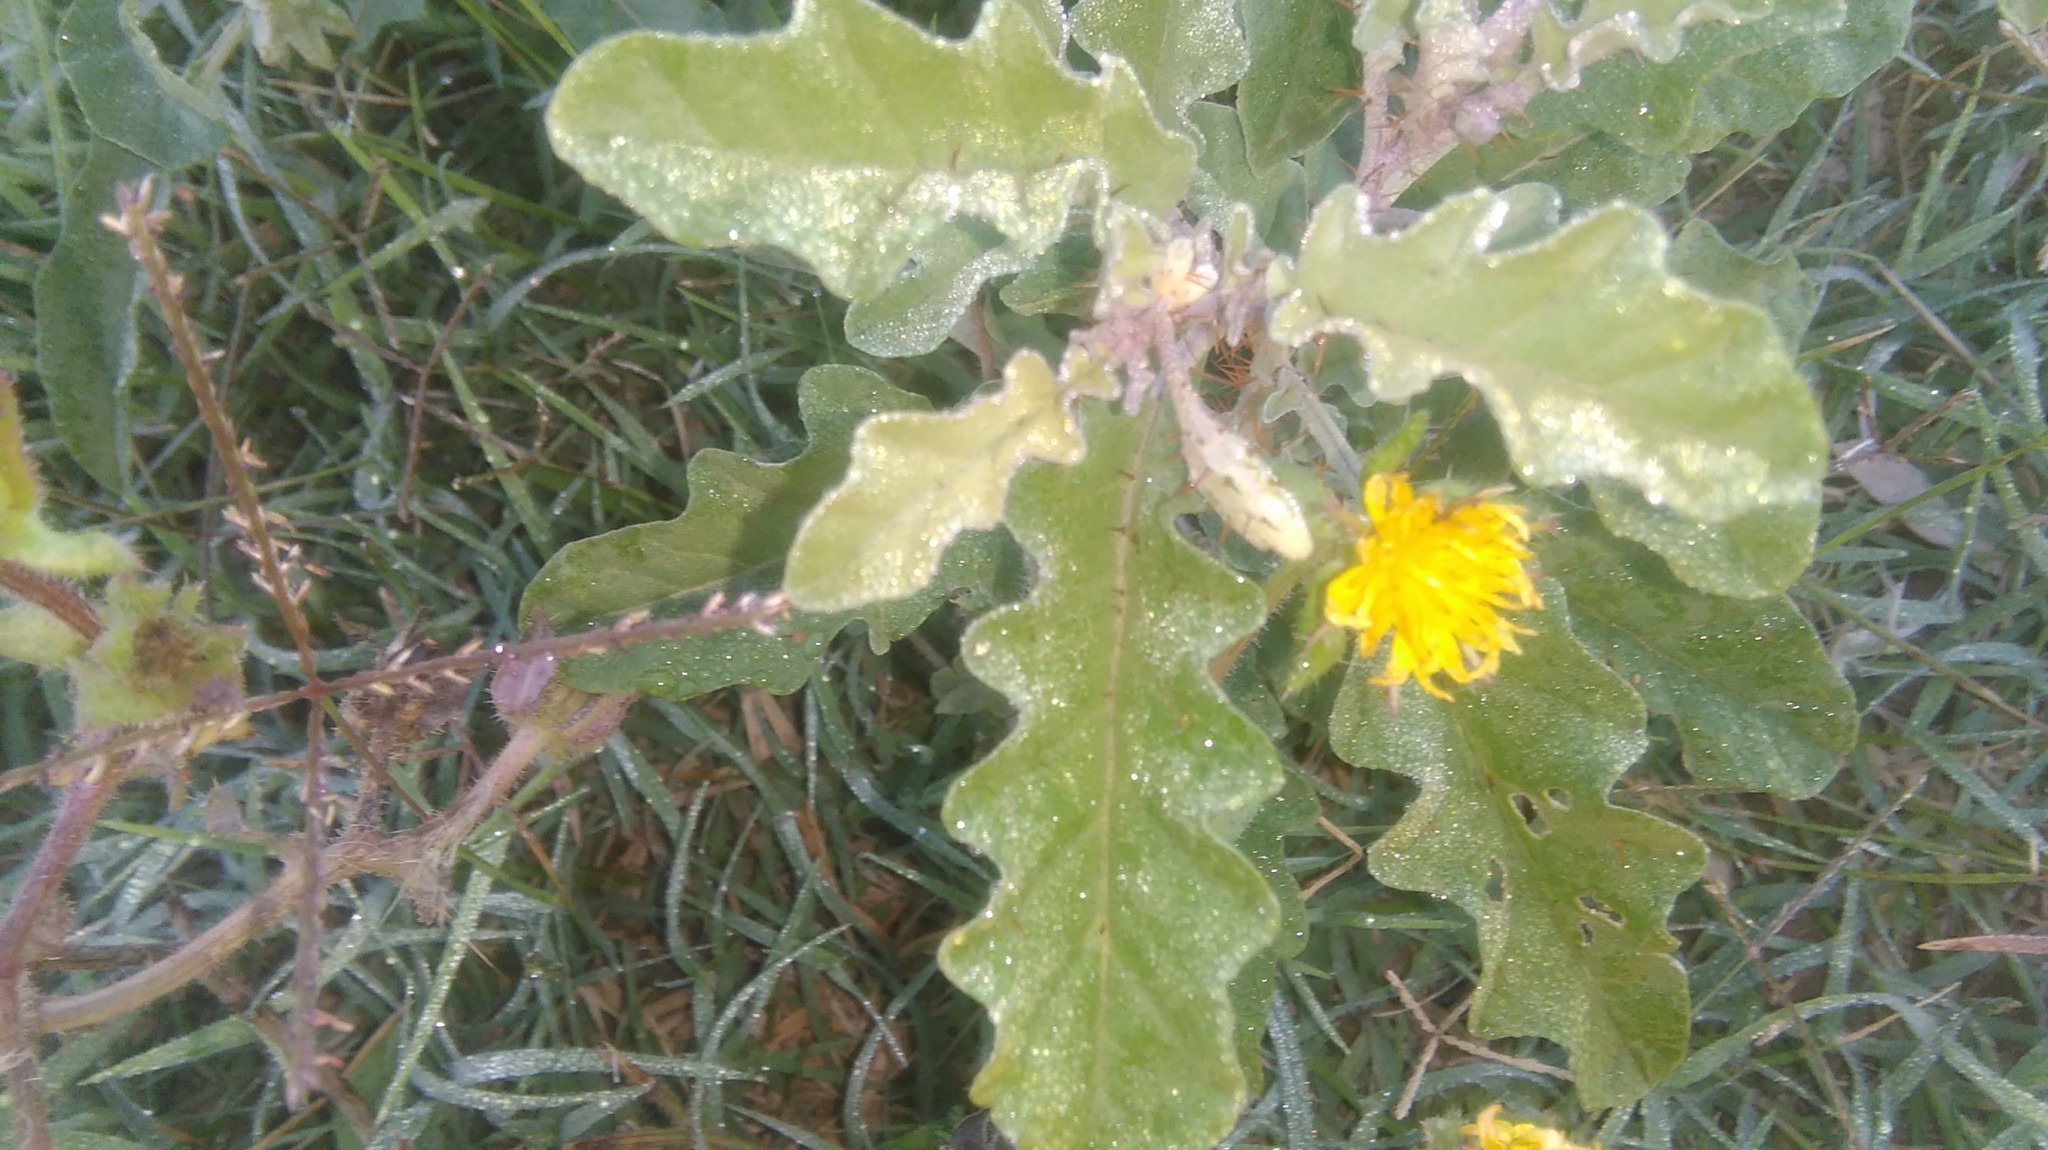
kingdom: Plantae
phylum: Tracheophyta
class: Magnoliopsida
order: Solanales
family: Solanaceae
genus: Solanum
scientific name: Solanum elaeagnifolium
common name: Silverleaf nightshade
